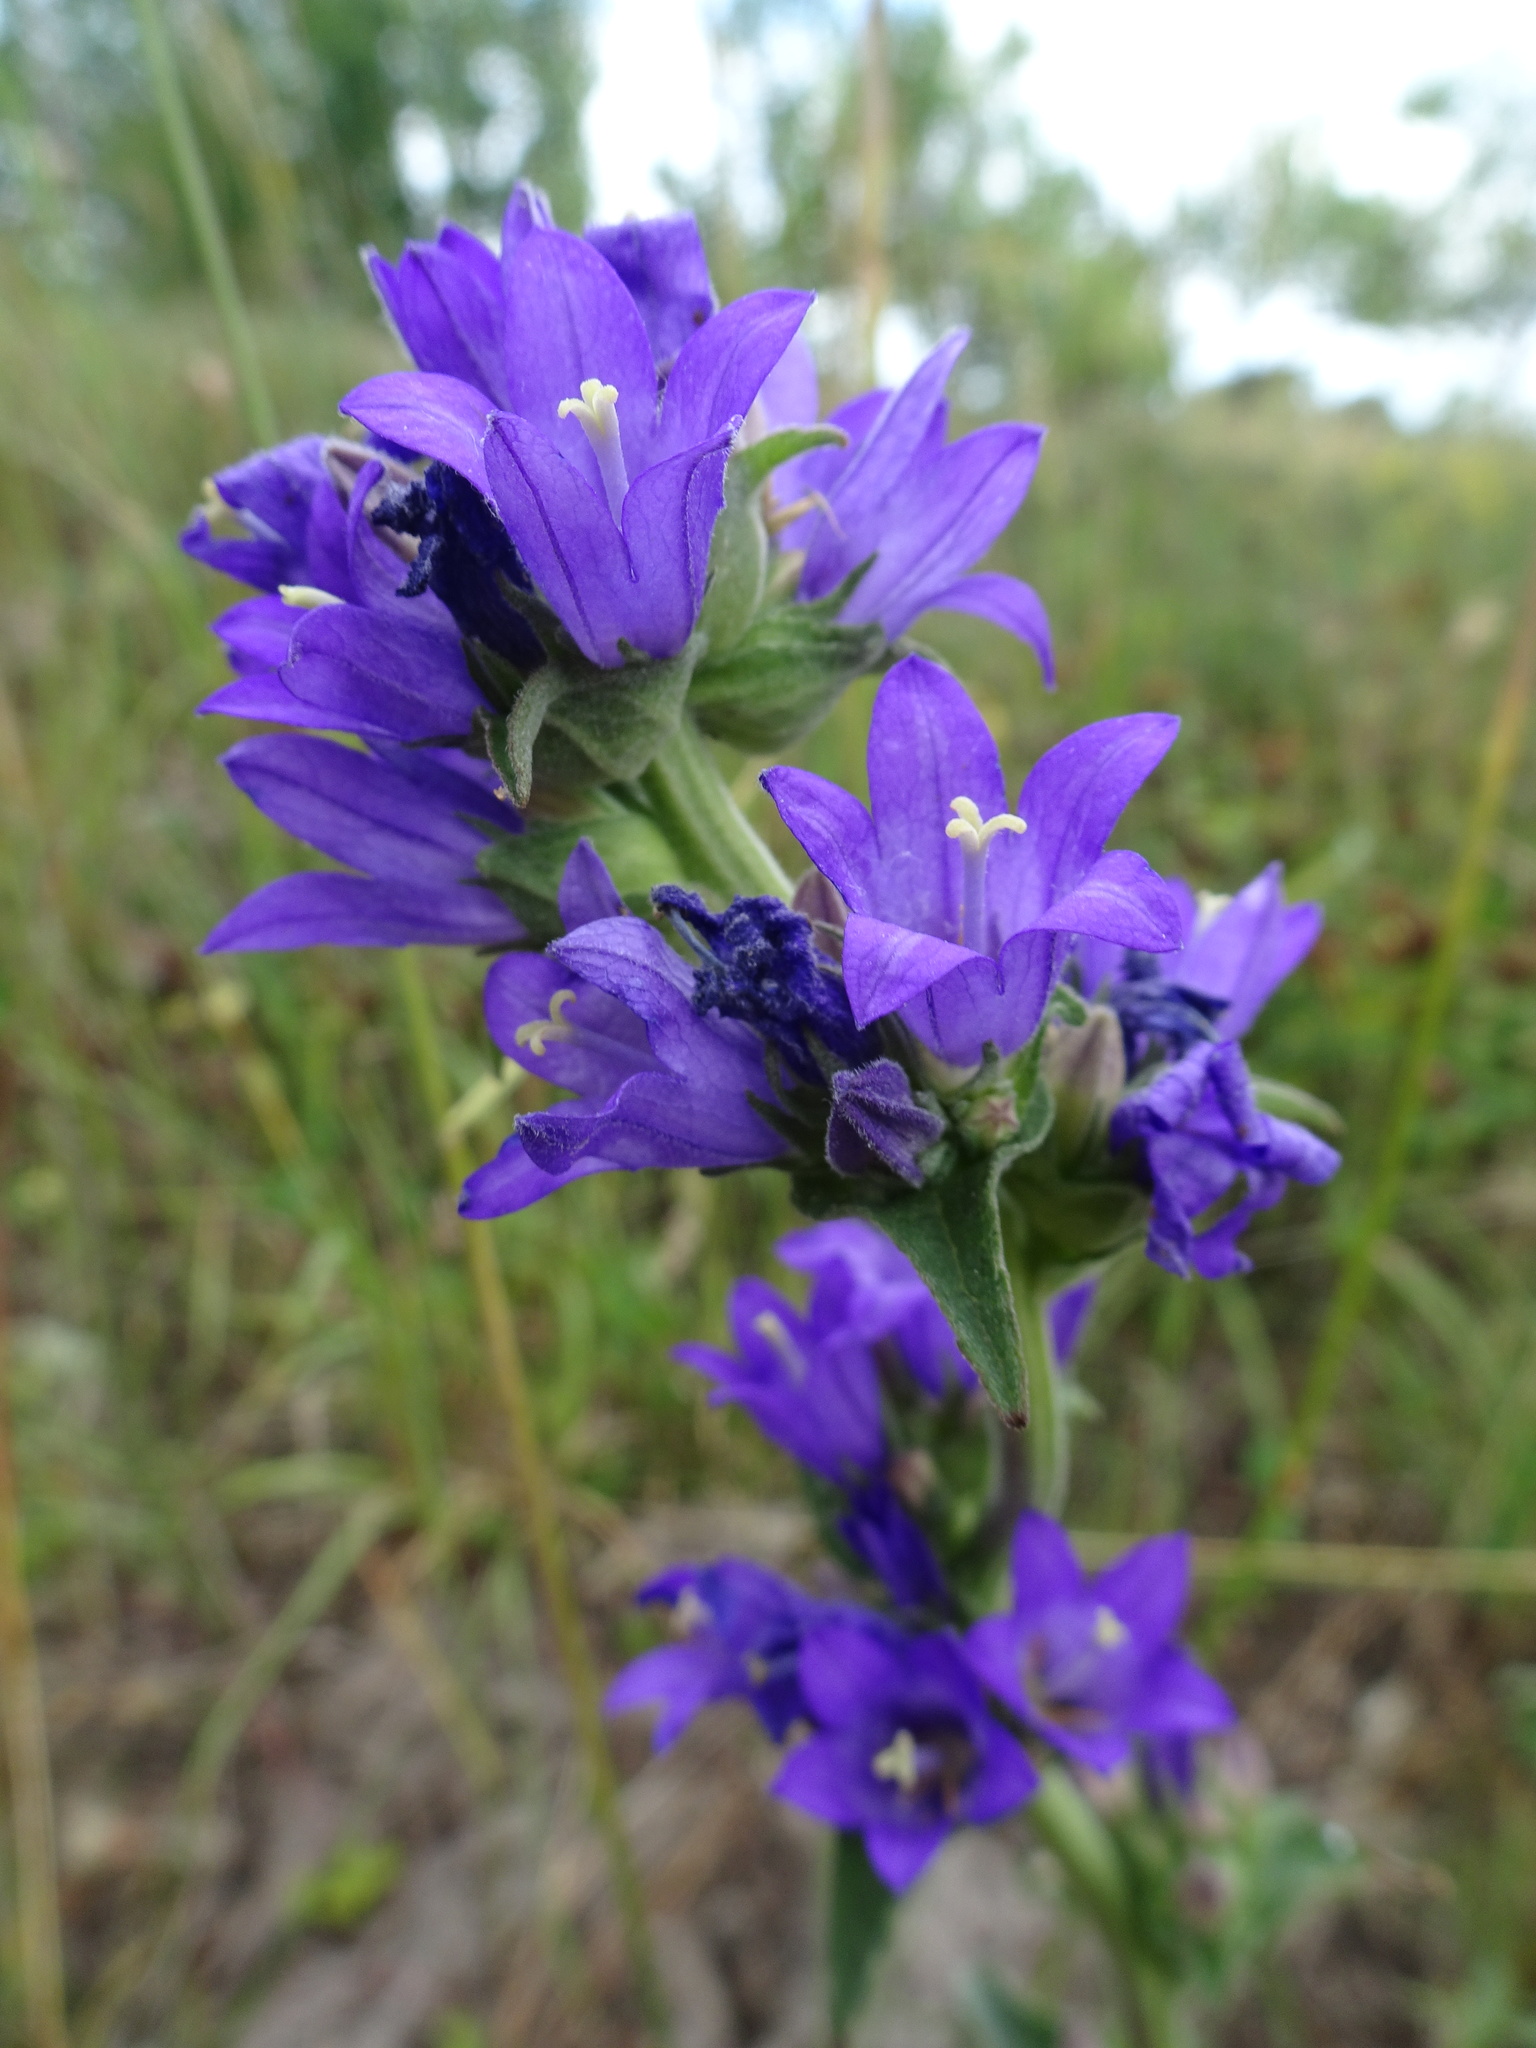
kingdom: Plantae
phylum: Tracheophyta
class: Magnoliopsida
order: Asterales
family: Campanulaceae
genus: Campanula
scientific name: Campanula glomerata
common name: Clustered bellflower
